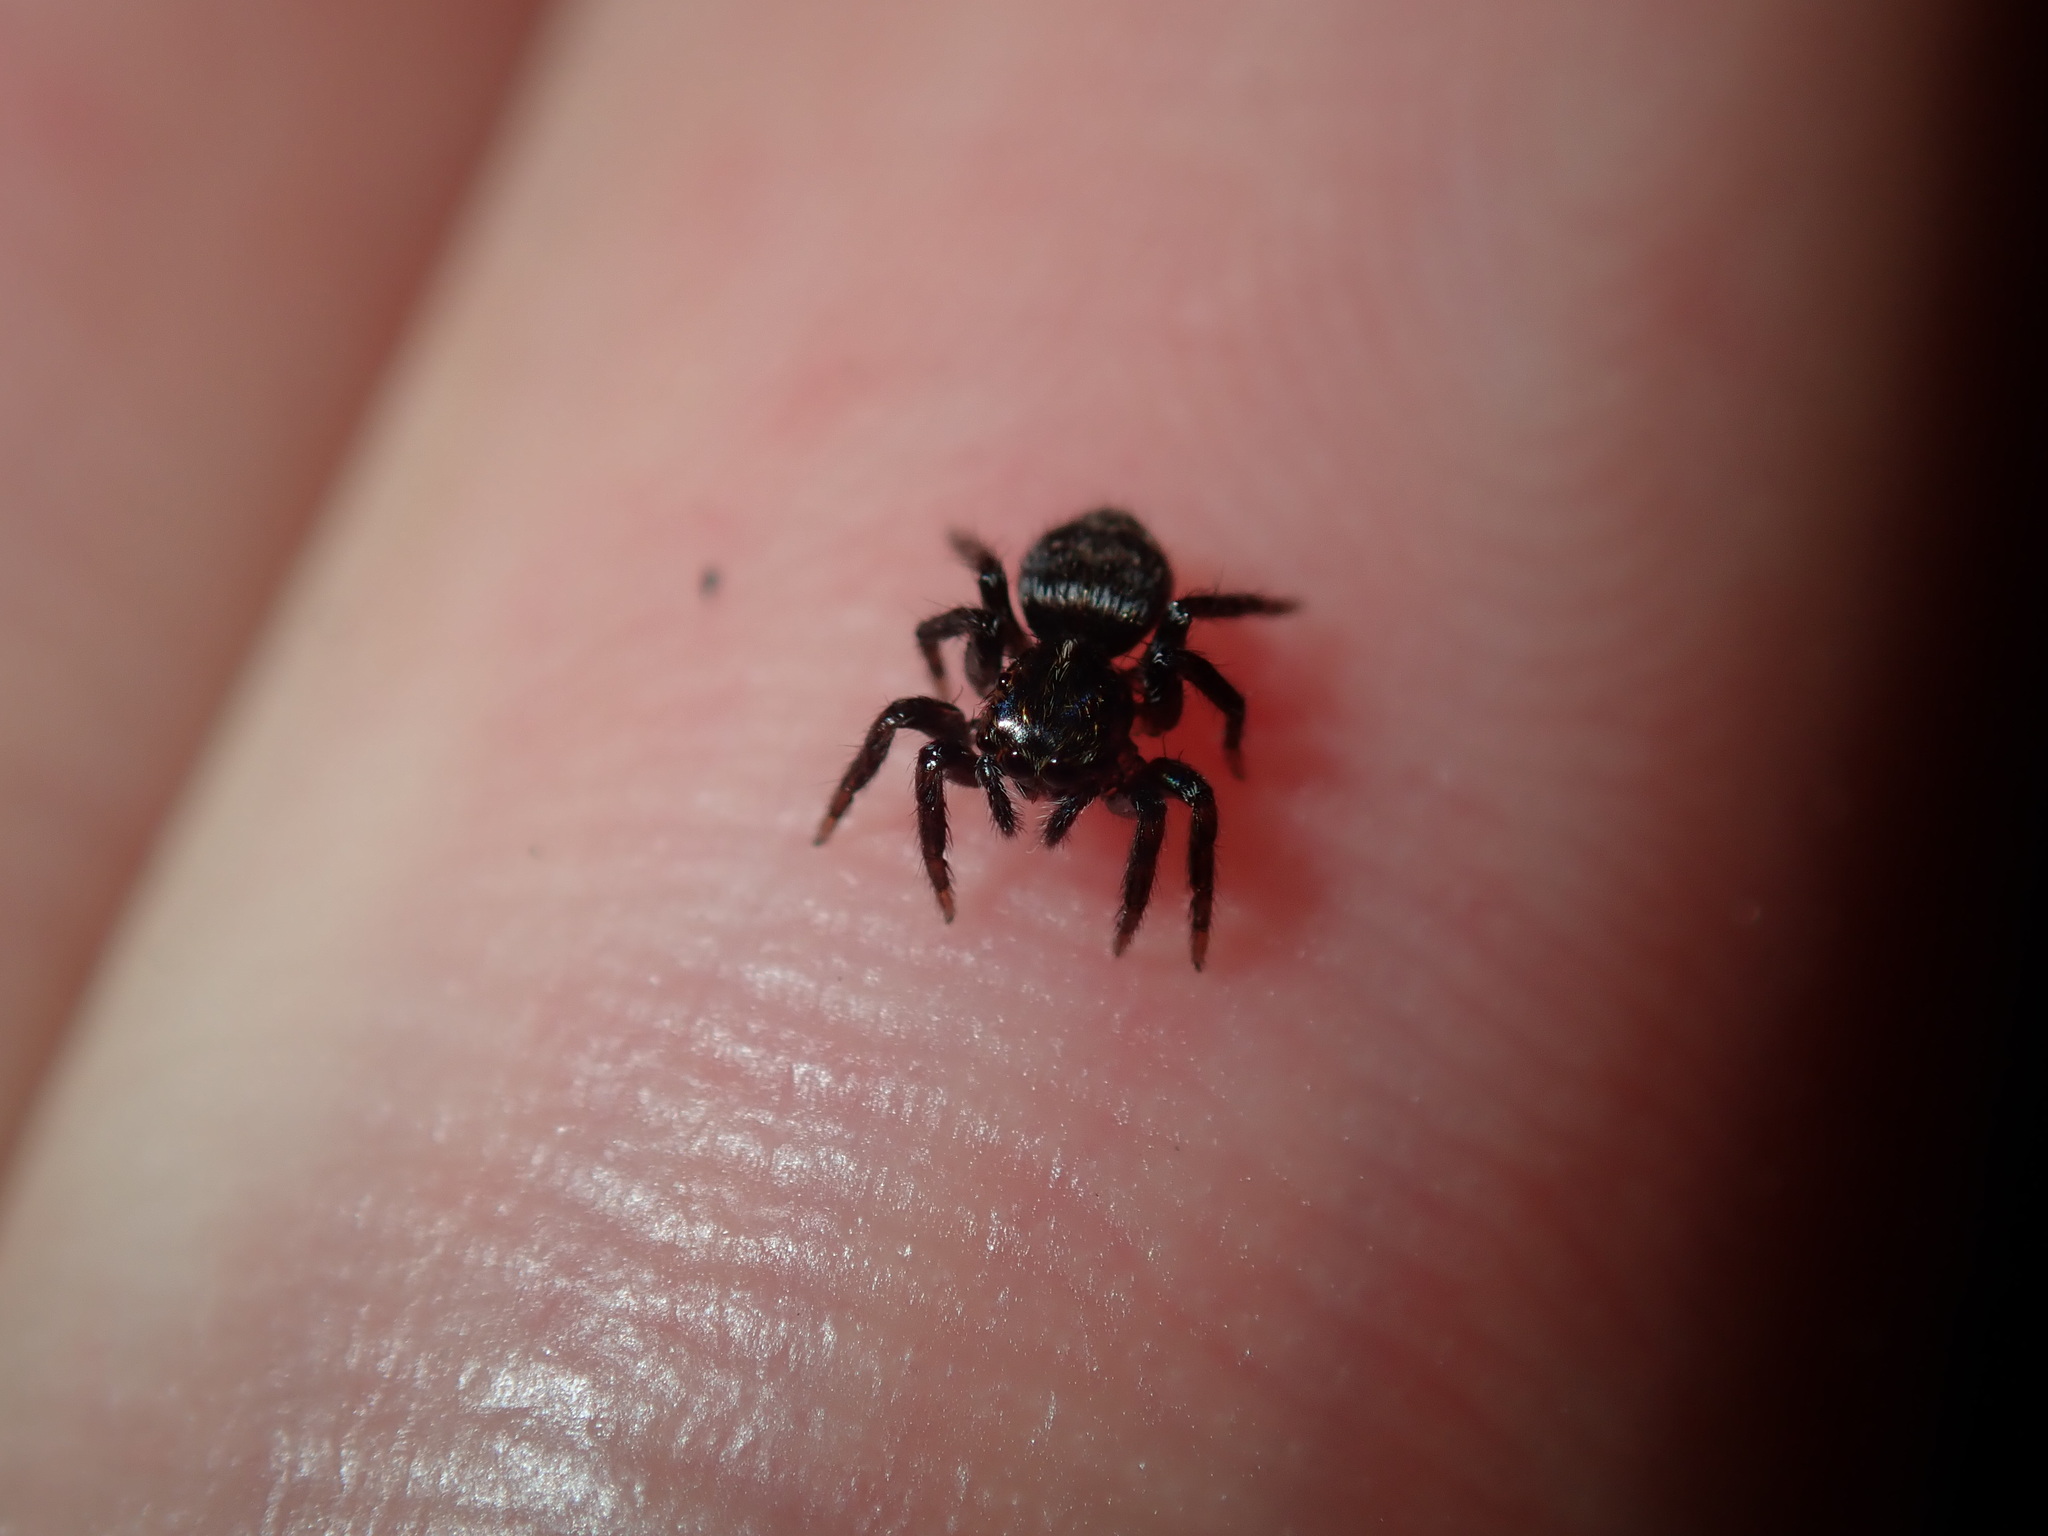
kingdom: Animalia
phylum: Arthropoda
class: Arachnida
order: Araneae
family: Salticidae
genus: Saitis
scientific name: Saitis virgatus
